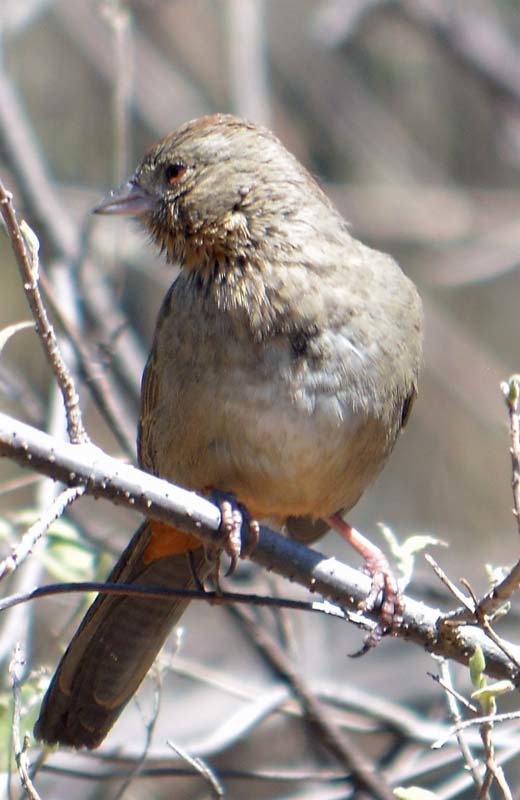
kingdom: Animalia
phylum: Chordata
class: Aves
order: Passeriformes
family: Passerellidae
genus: Melozone
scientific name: Melozone fusca
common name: Canyon towhee
